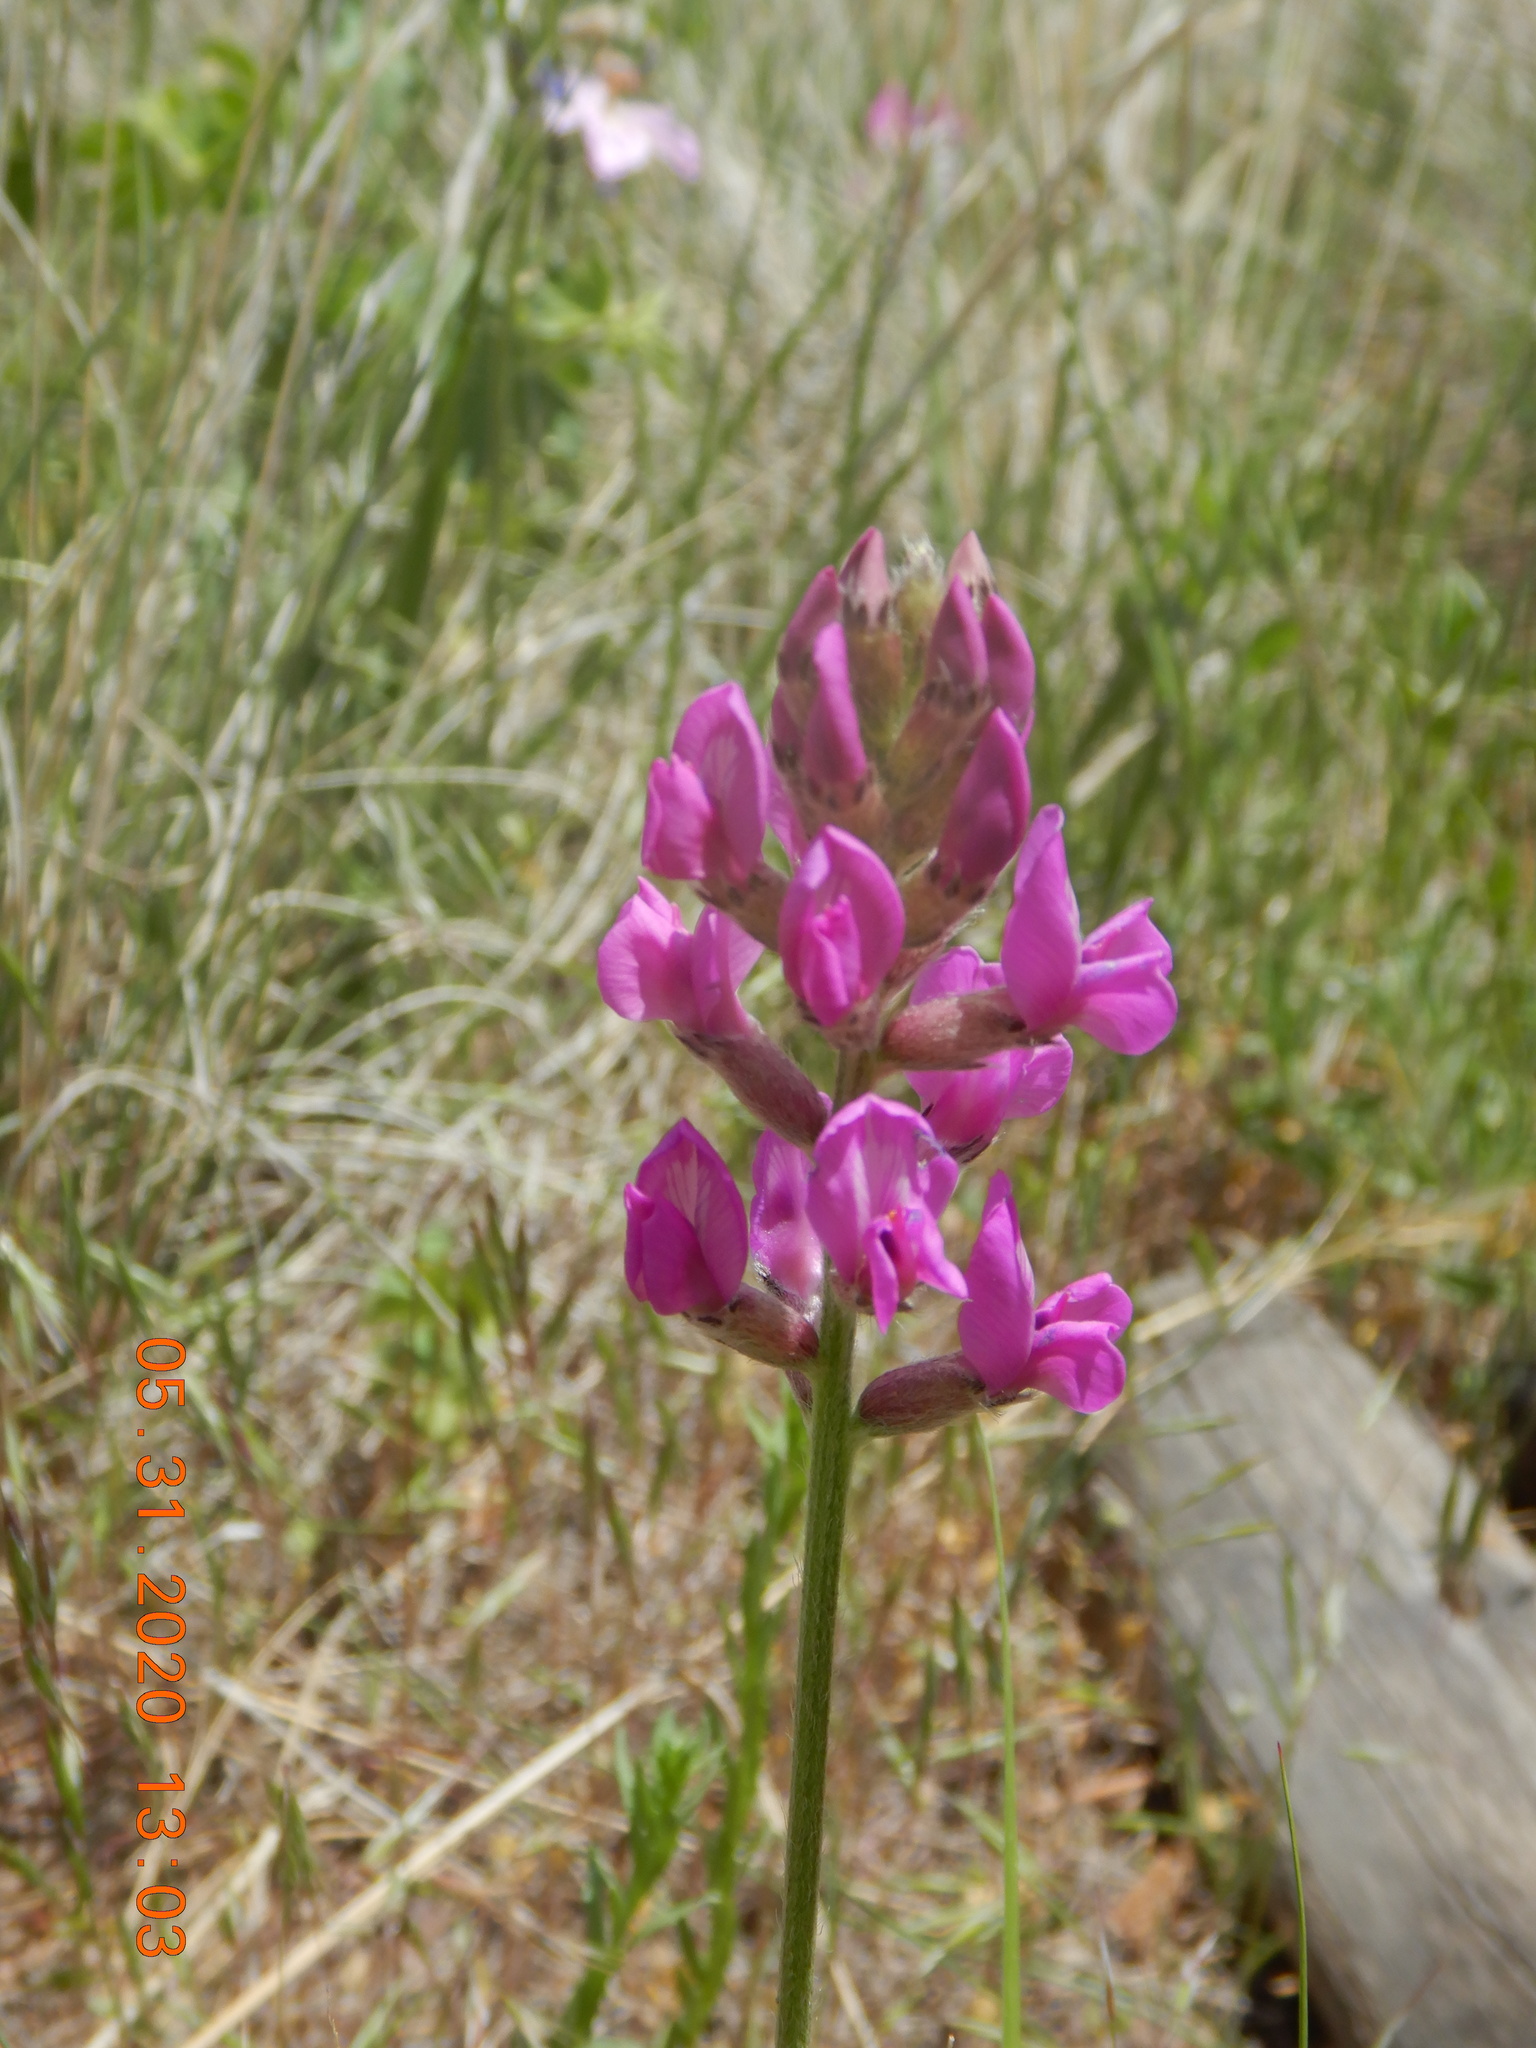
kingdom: Plantae
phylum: Tracheophyta
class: Magnoliopsida
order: Fabales
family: Fabaceae
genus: Oxytropis
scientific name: Oxytropis lambertii
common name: Purple locoweed
